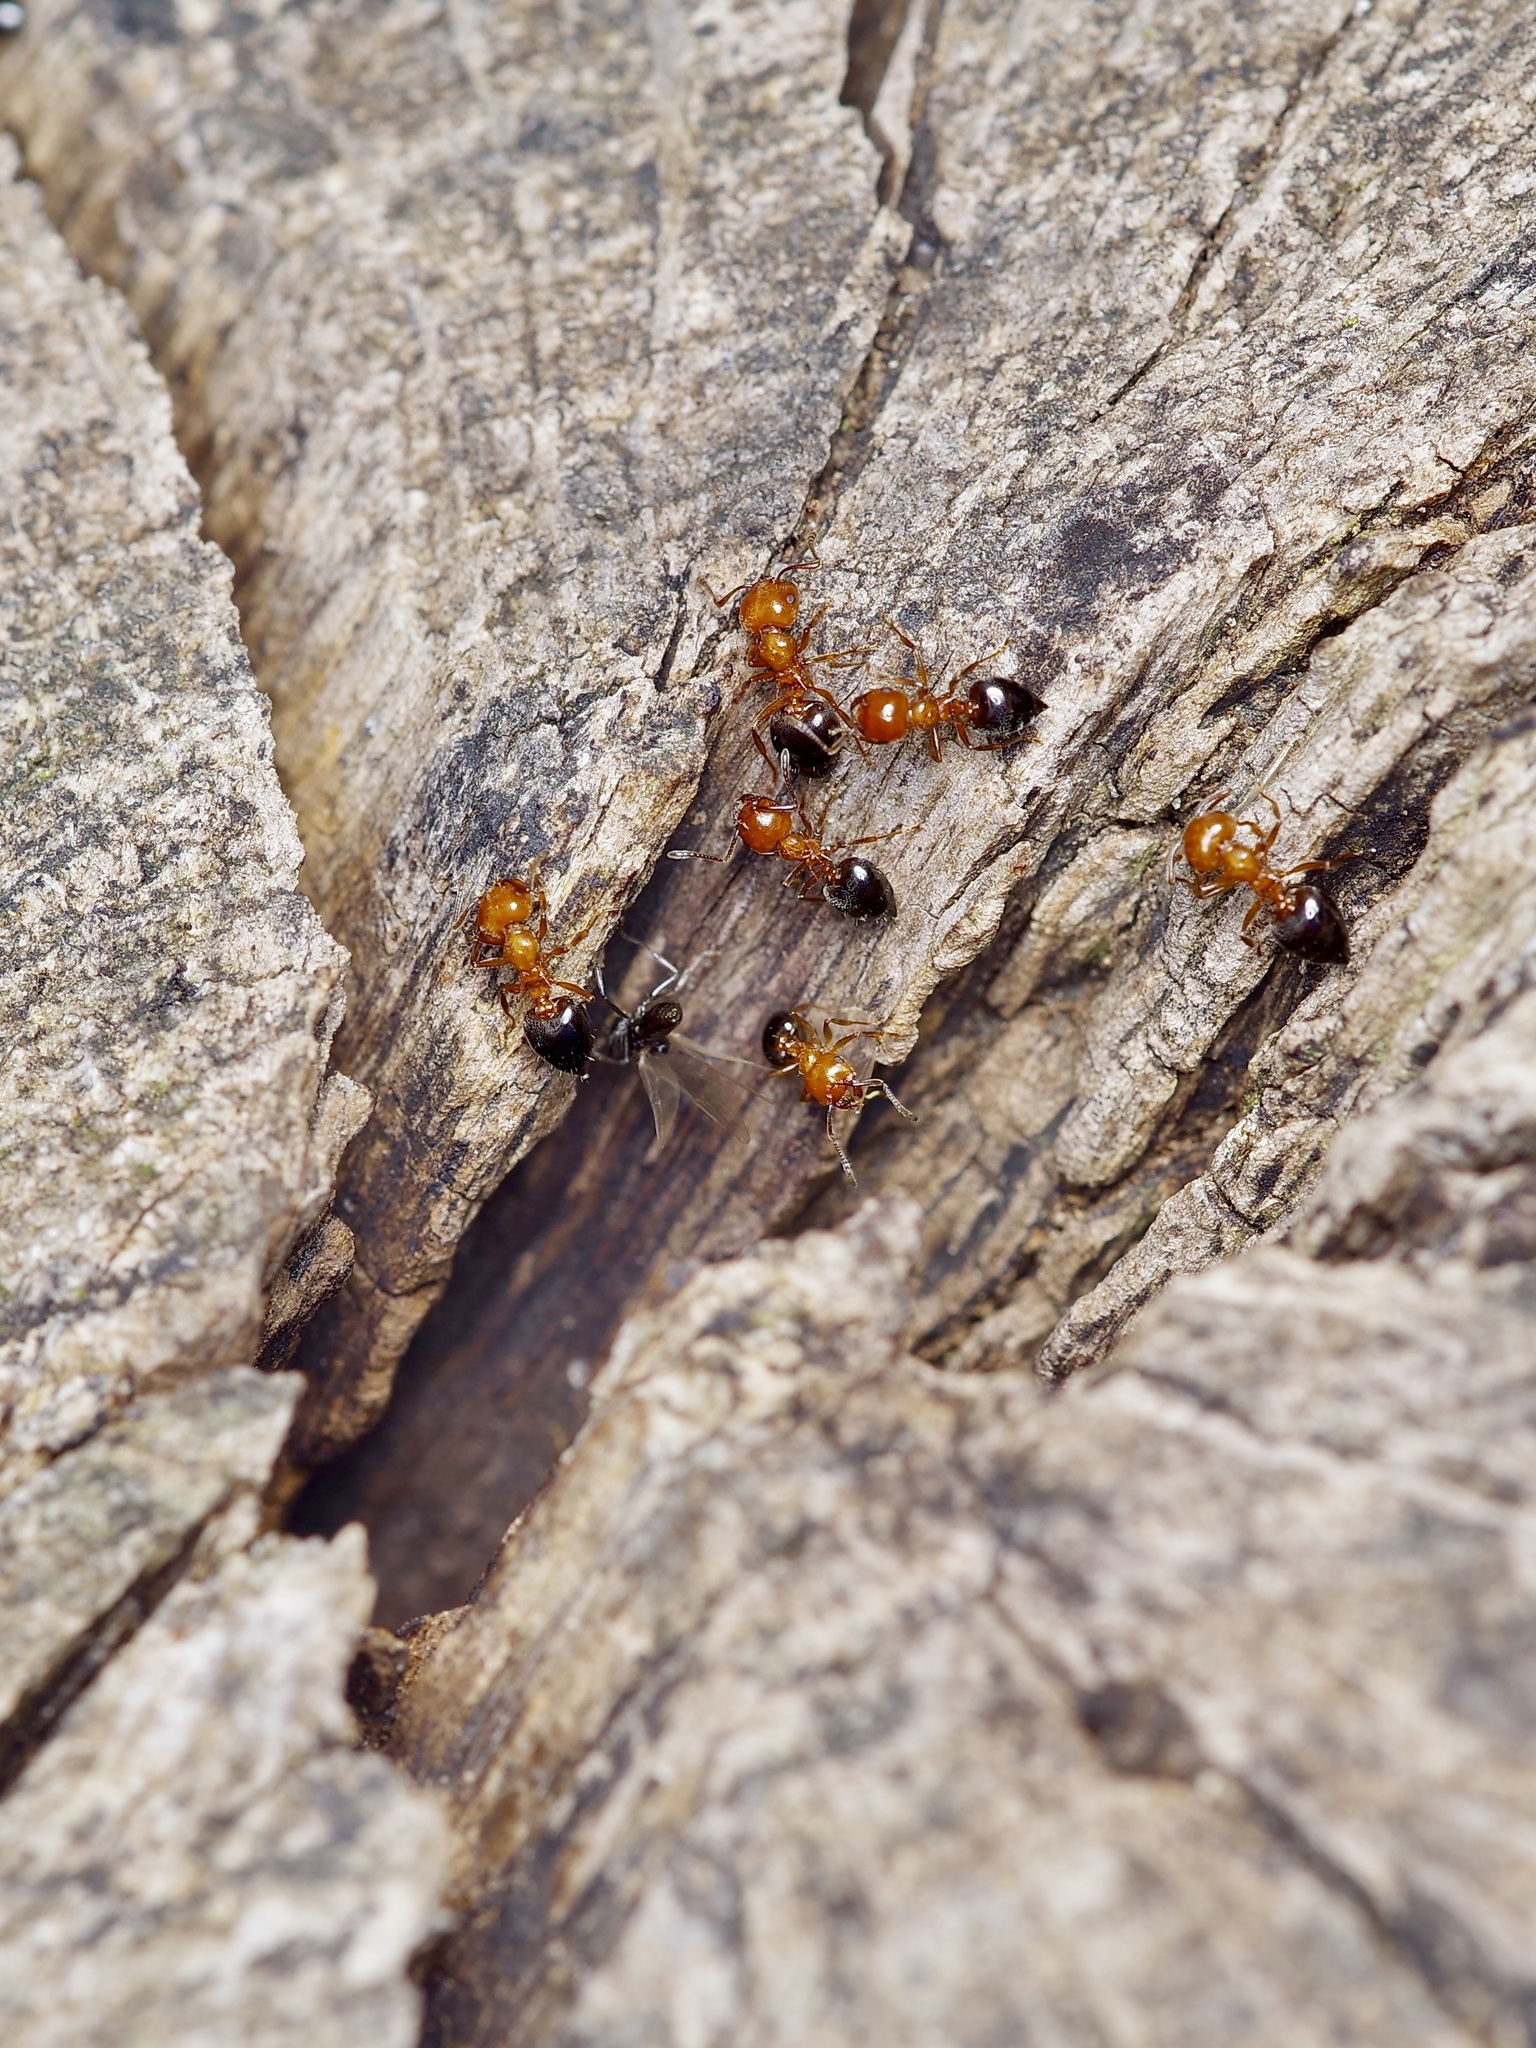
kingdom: Animalia
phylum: Arthropoda
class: Insecta
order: Hymenoptera
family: Formicidae
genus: Crematogaster
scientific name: Crematogaster laeviuscula
